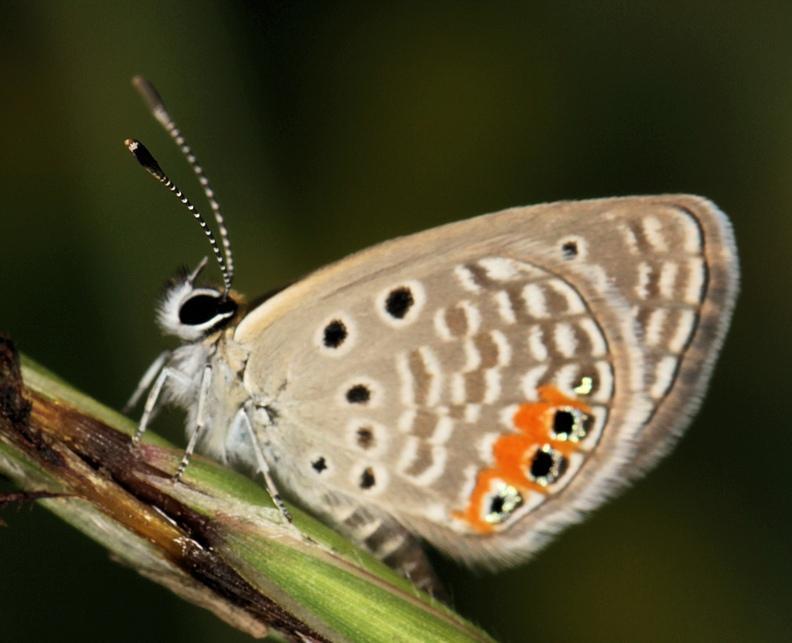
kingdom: Animalia
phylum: Arthropoda
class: Insecta
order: Lepidoptera
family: Lycaenidae
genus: Freyeria
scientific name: Freyeria trochylus
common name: Grass jewel
